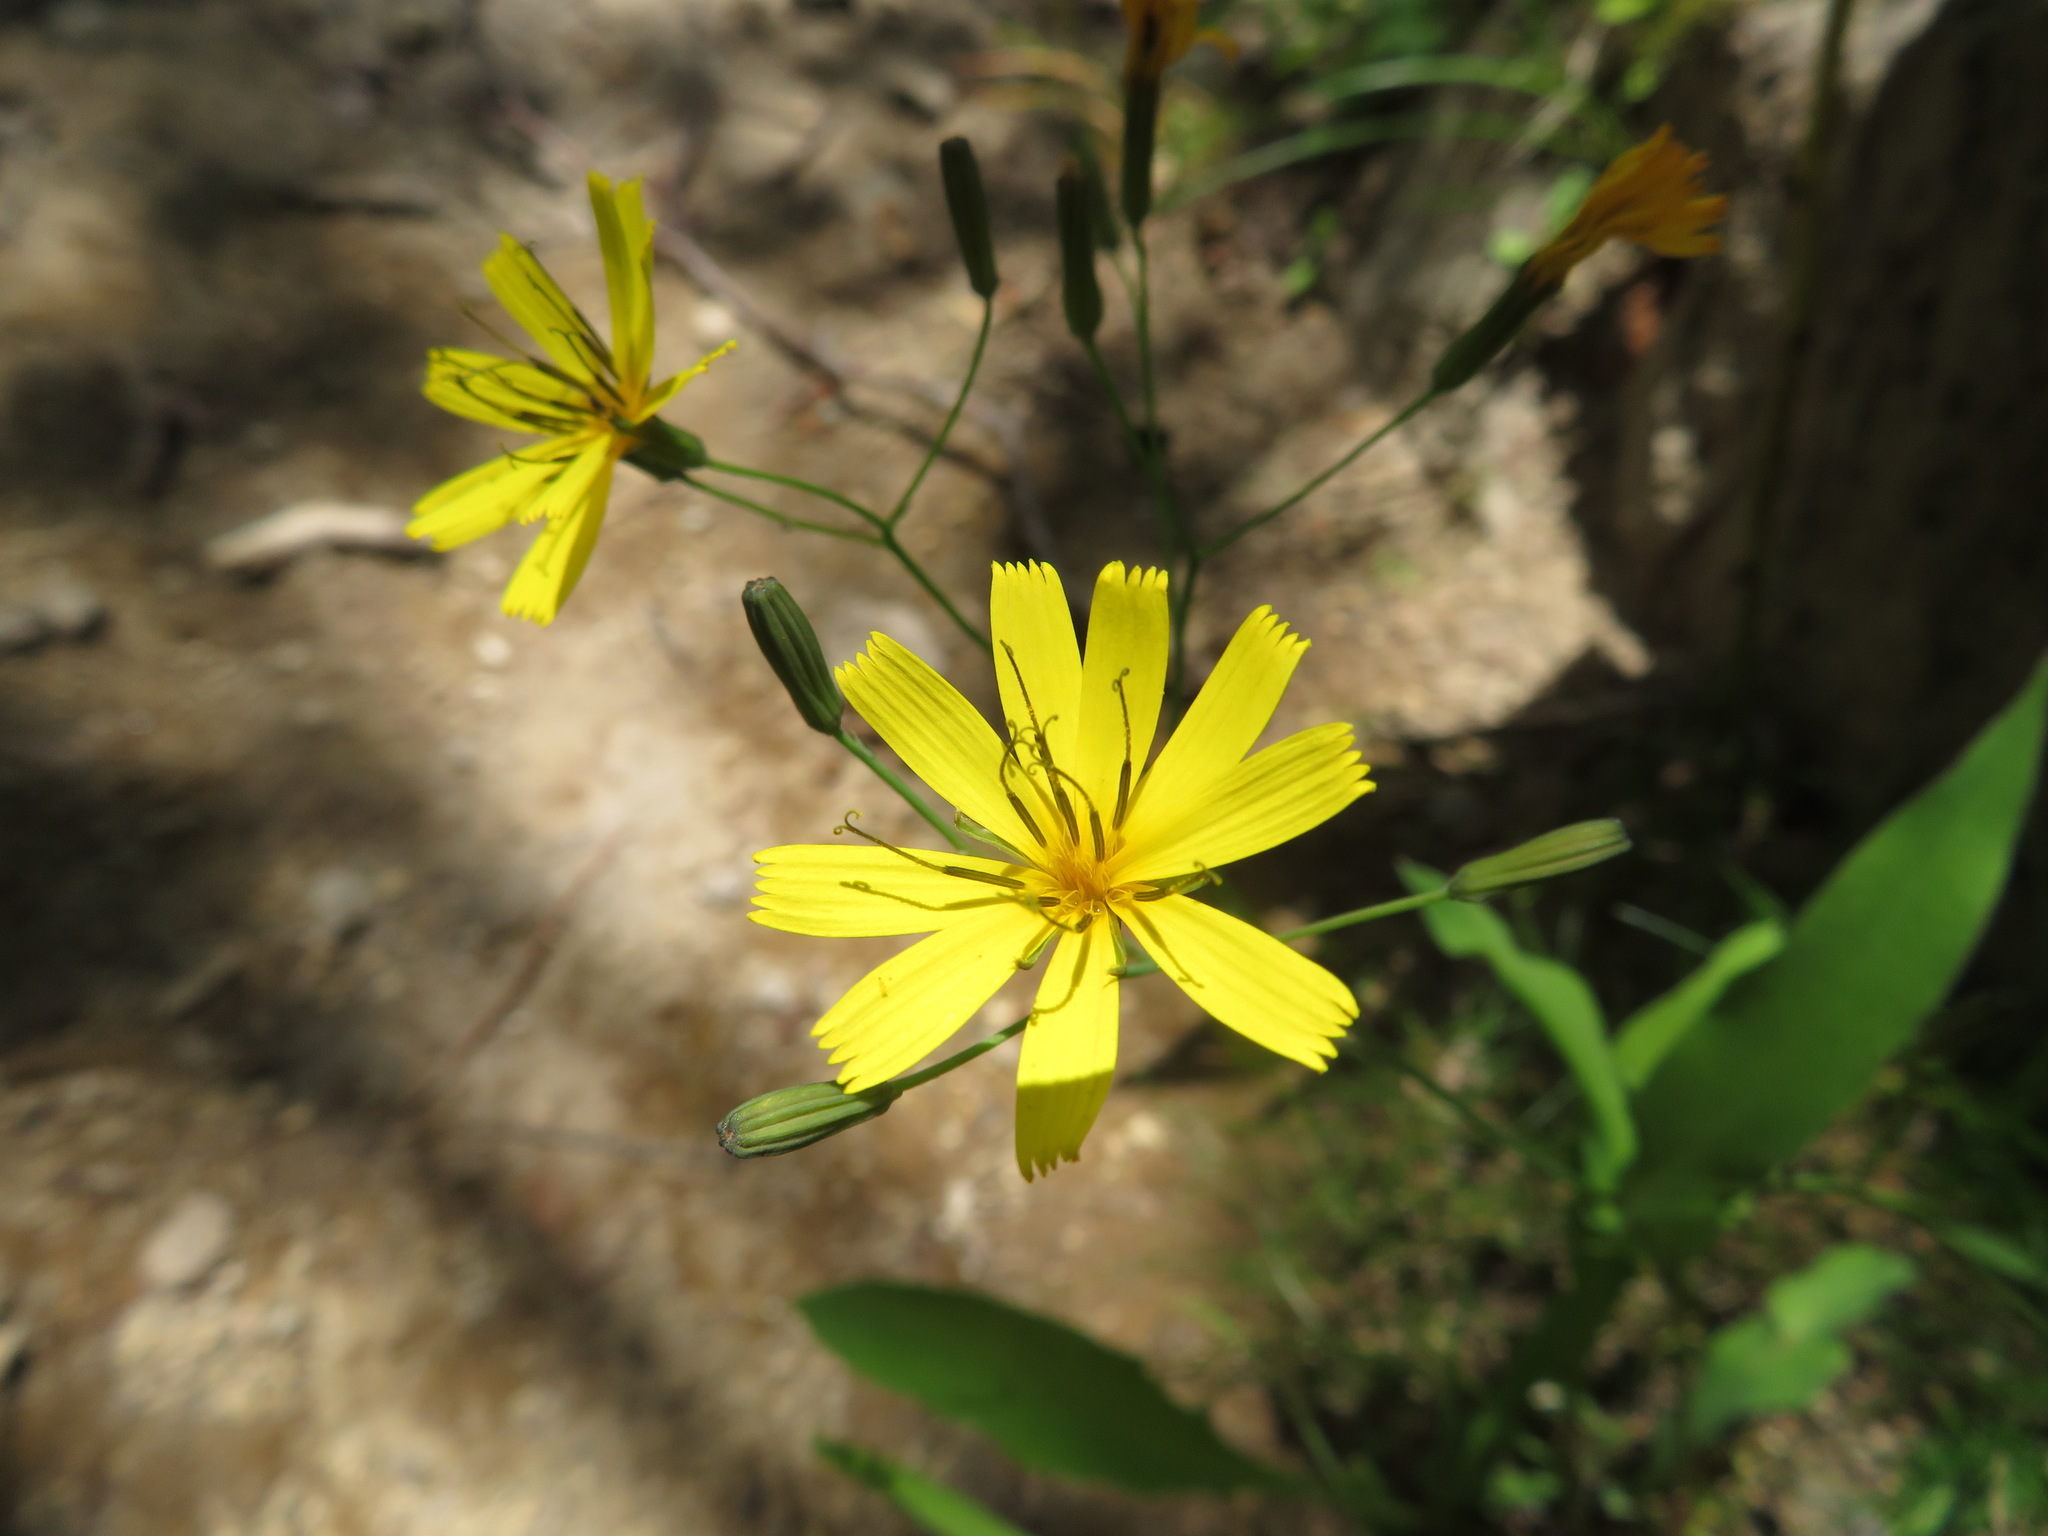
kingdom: Plantae
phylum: Tracheophyta
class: Magnoliopsida
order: Asterales
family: Asteraceae
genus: Ixeridium
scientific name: Ixeridium dentatum
